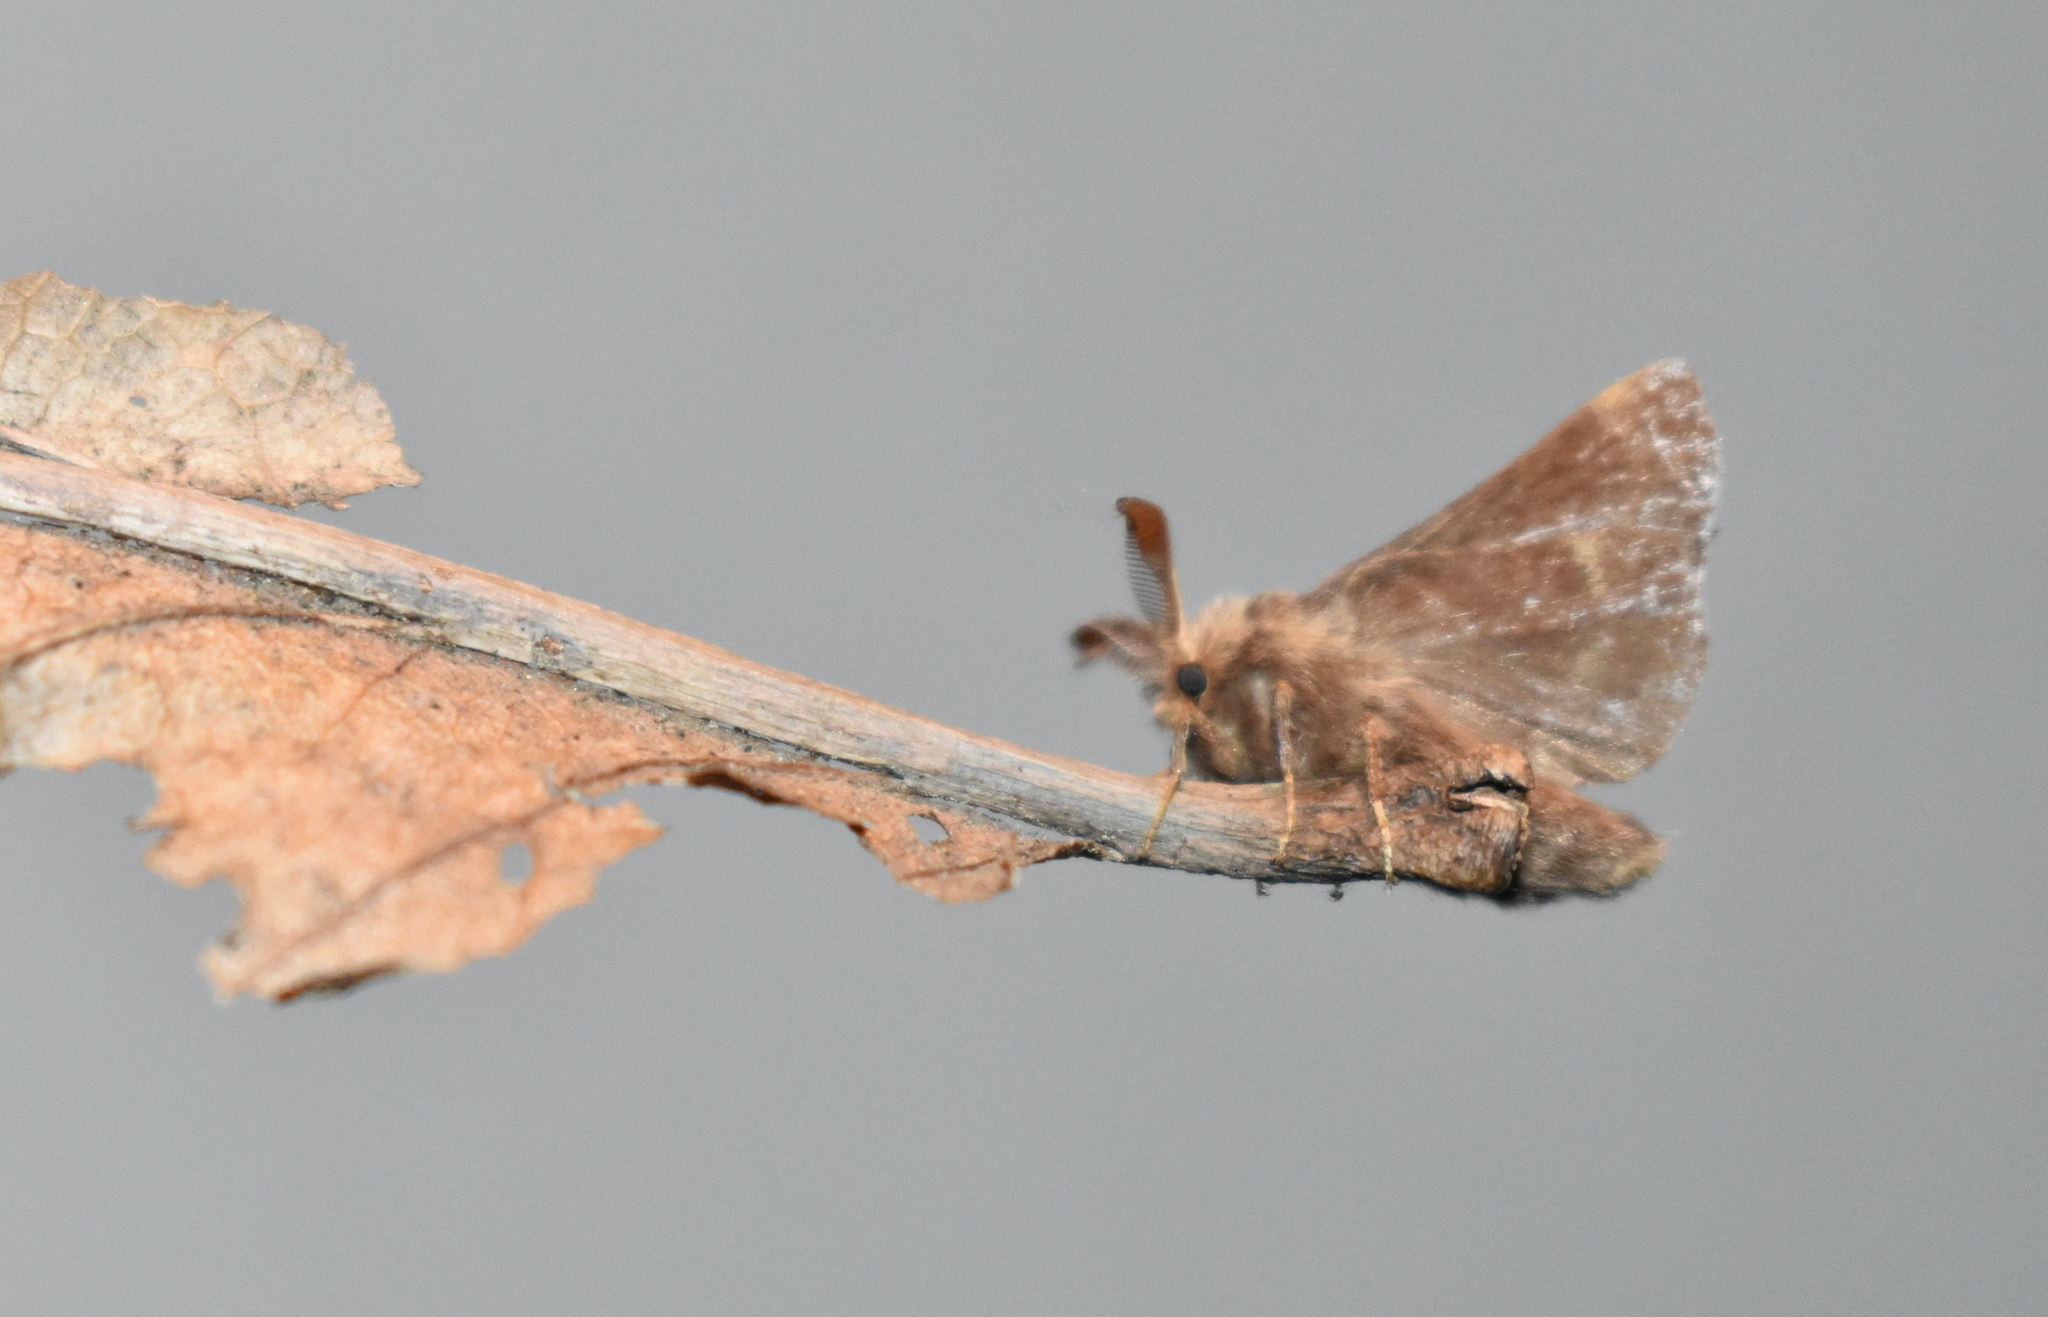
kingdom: Animalia
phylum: Arthropoda
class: Insecta
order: Lepidoptera
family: Lasiocampidae
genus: Malacosoma
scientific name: Malacosoma californica
